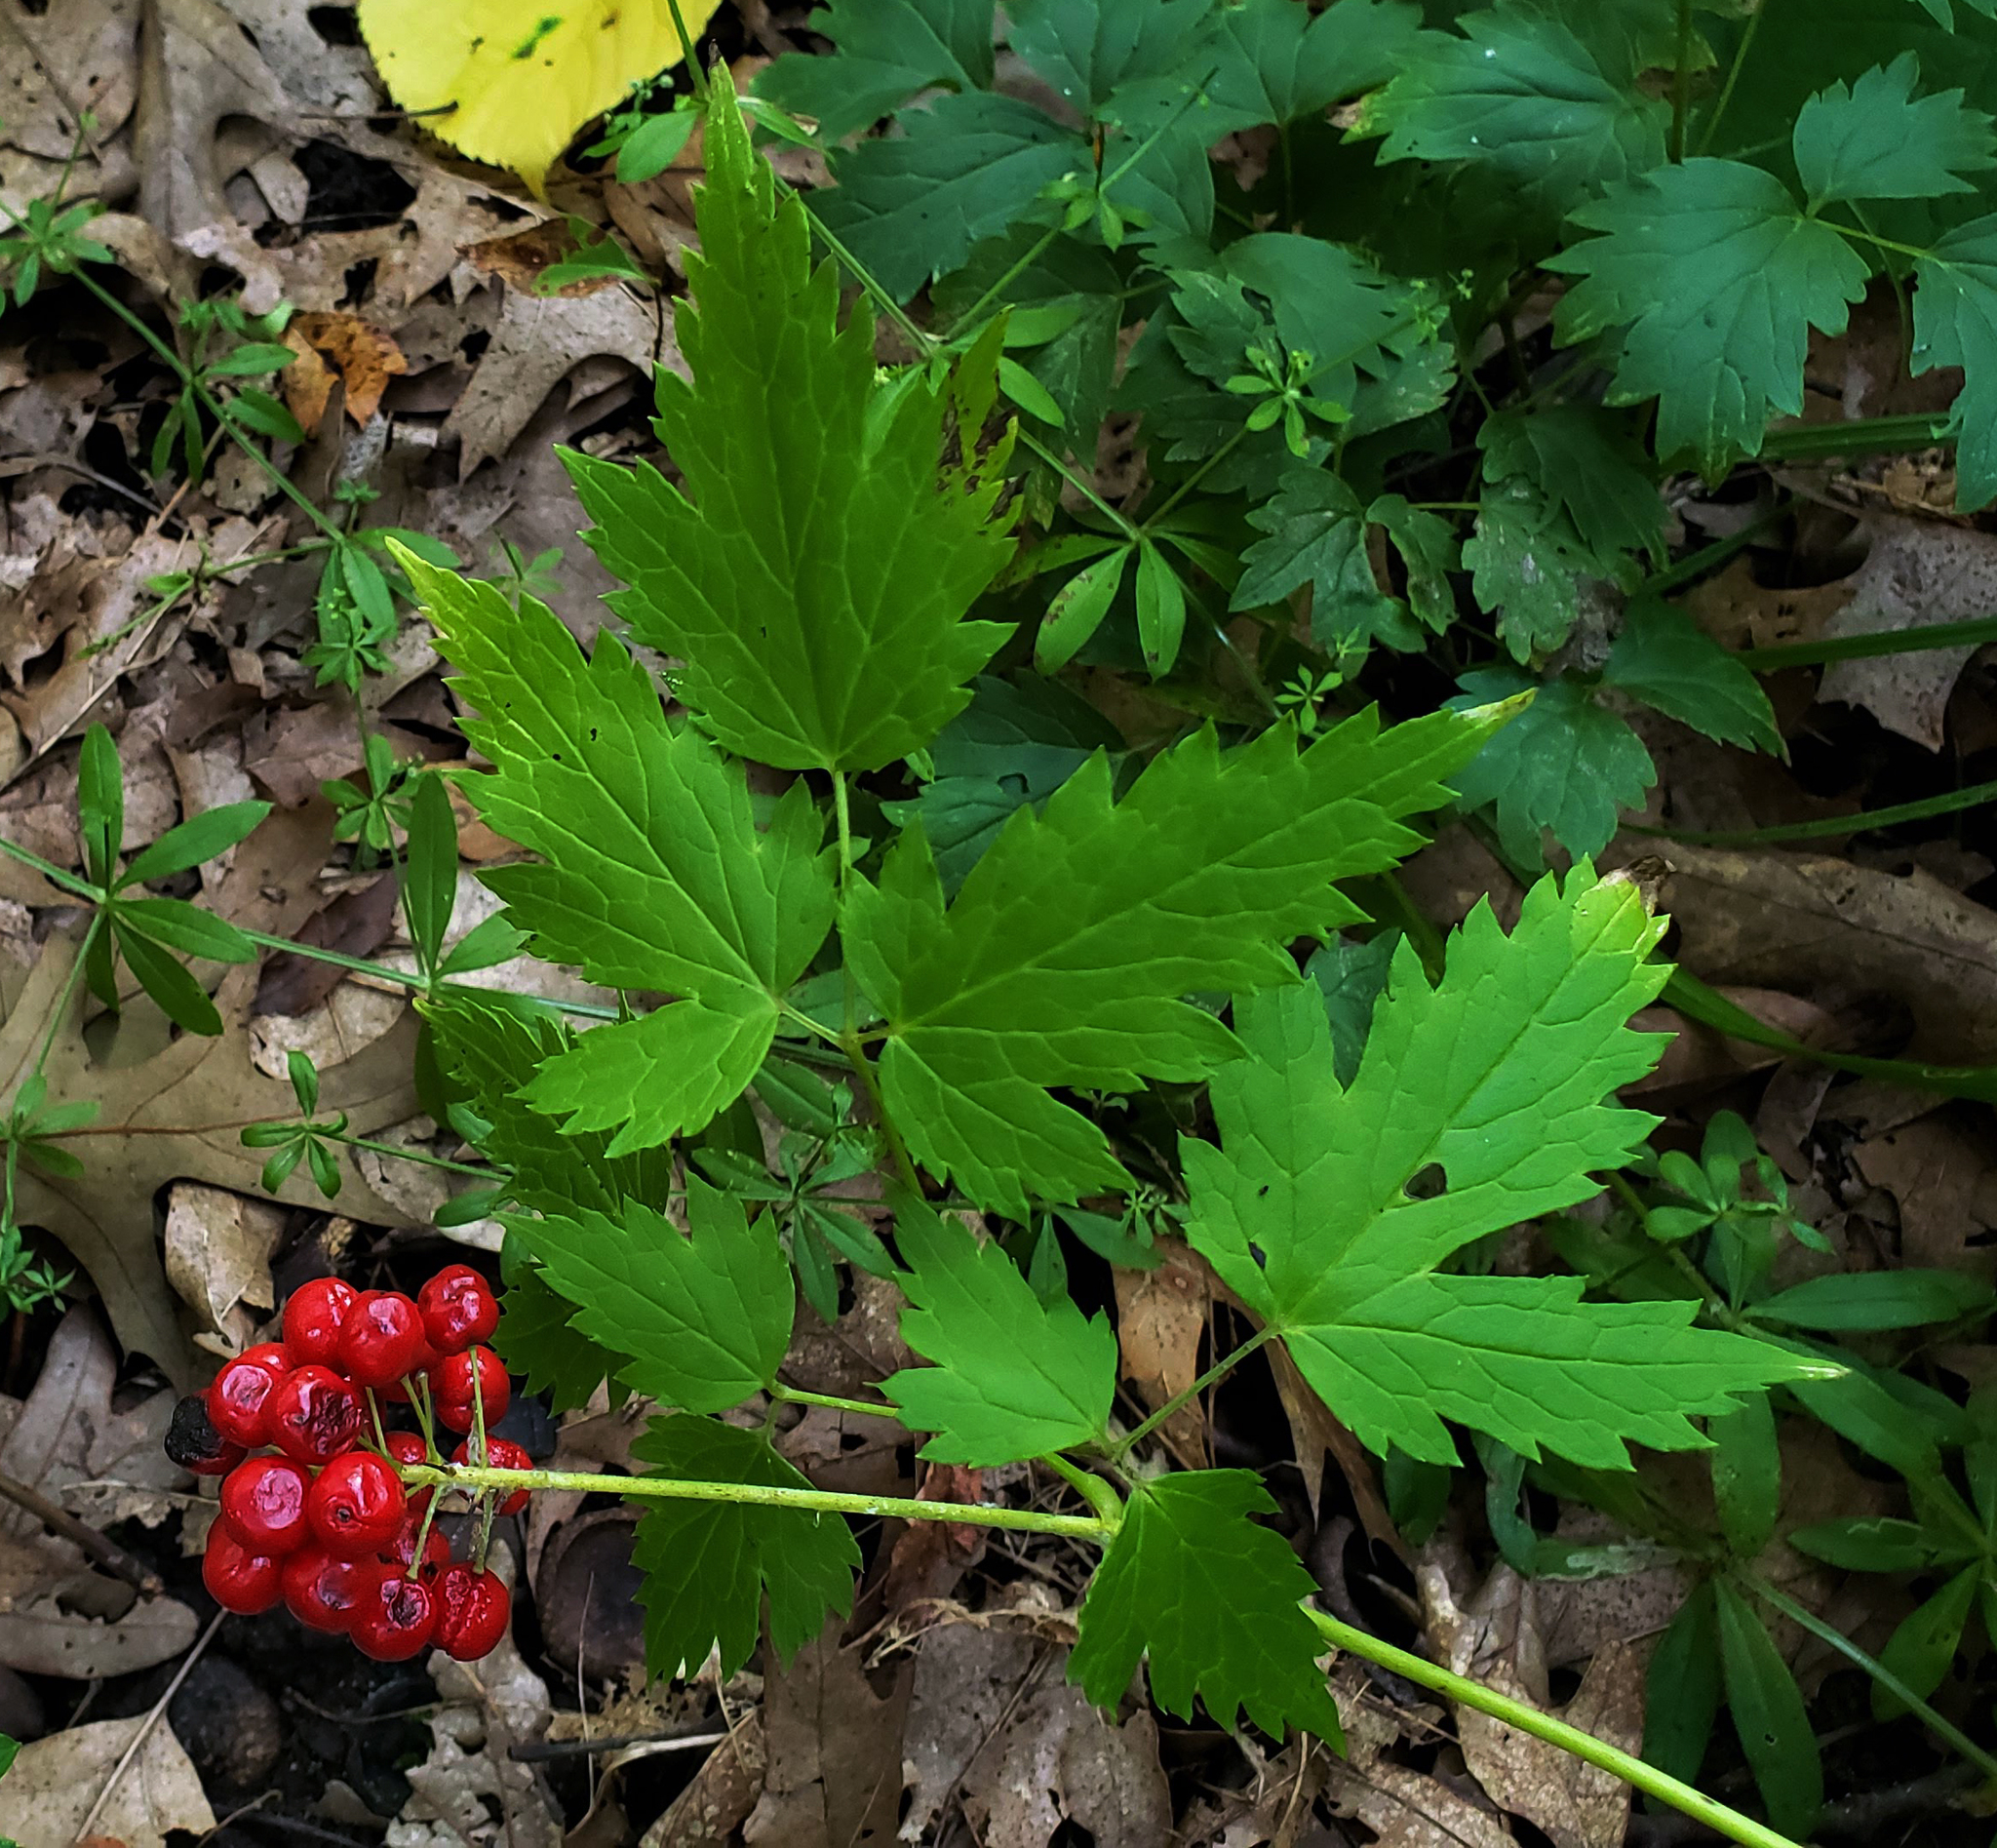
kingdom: Plantae
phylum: Tracheophyta
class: Magnoliopsida
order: Ranunculales
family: Ranunculaceae
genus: Actaea
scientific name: Actaea rubra
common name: Red baneberry
